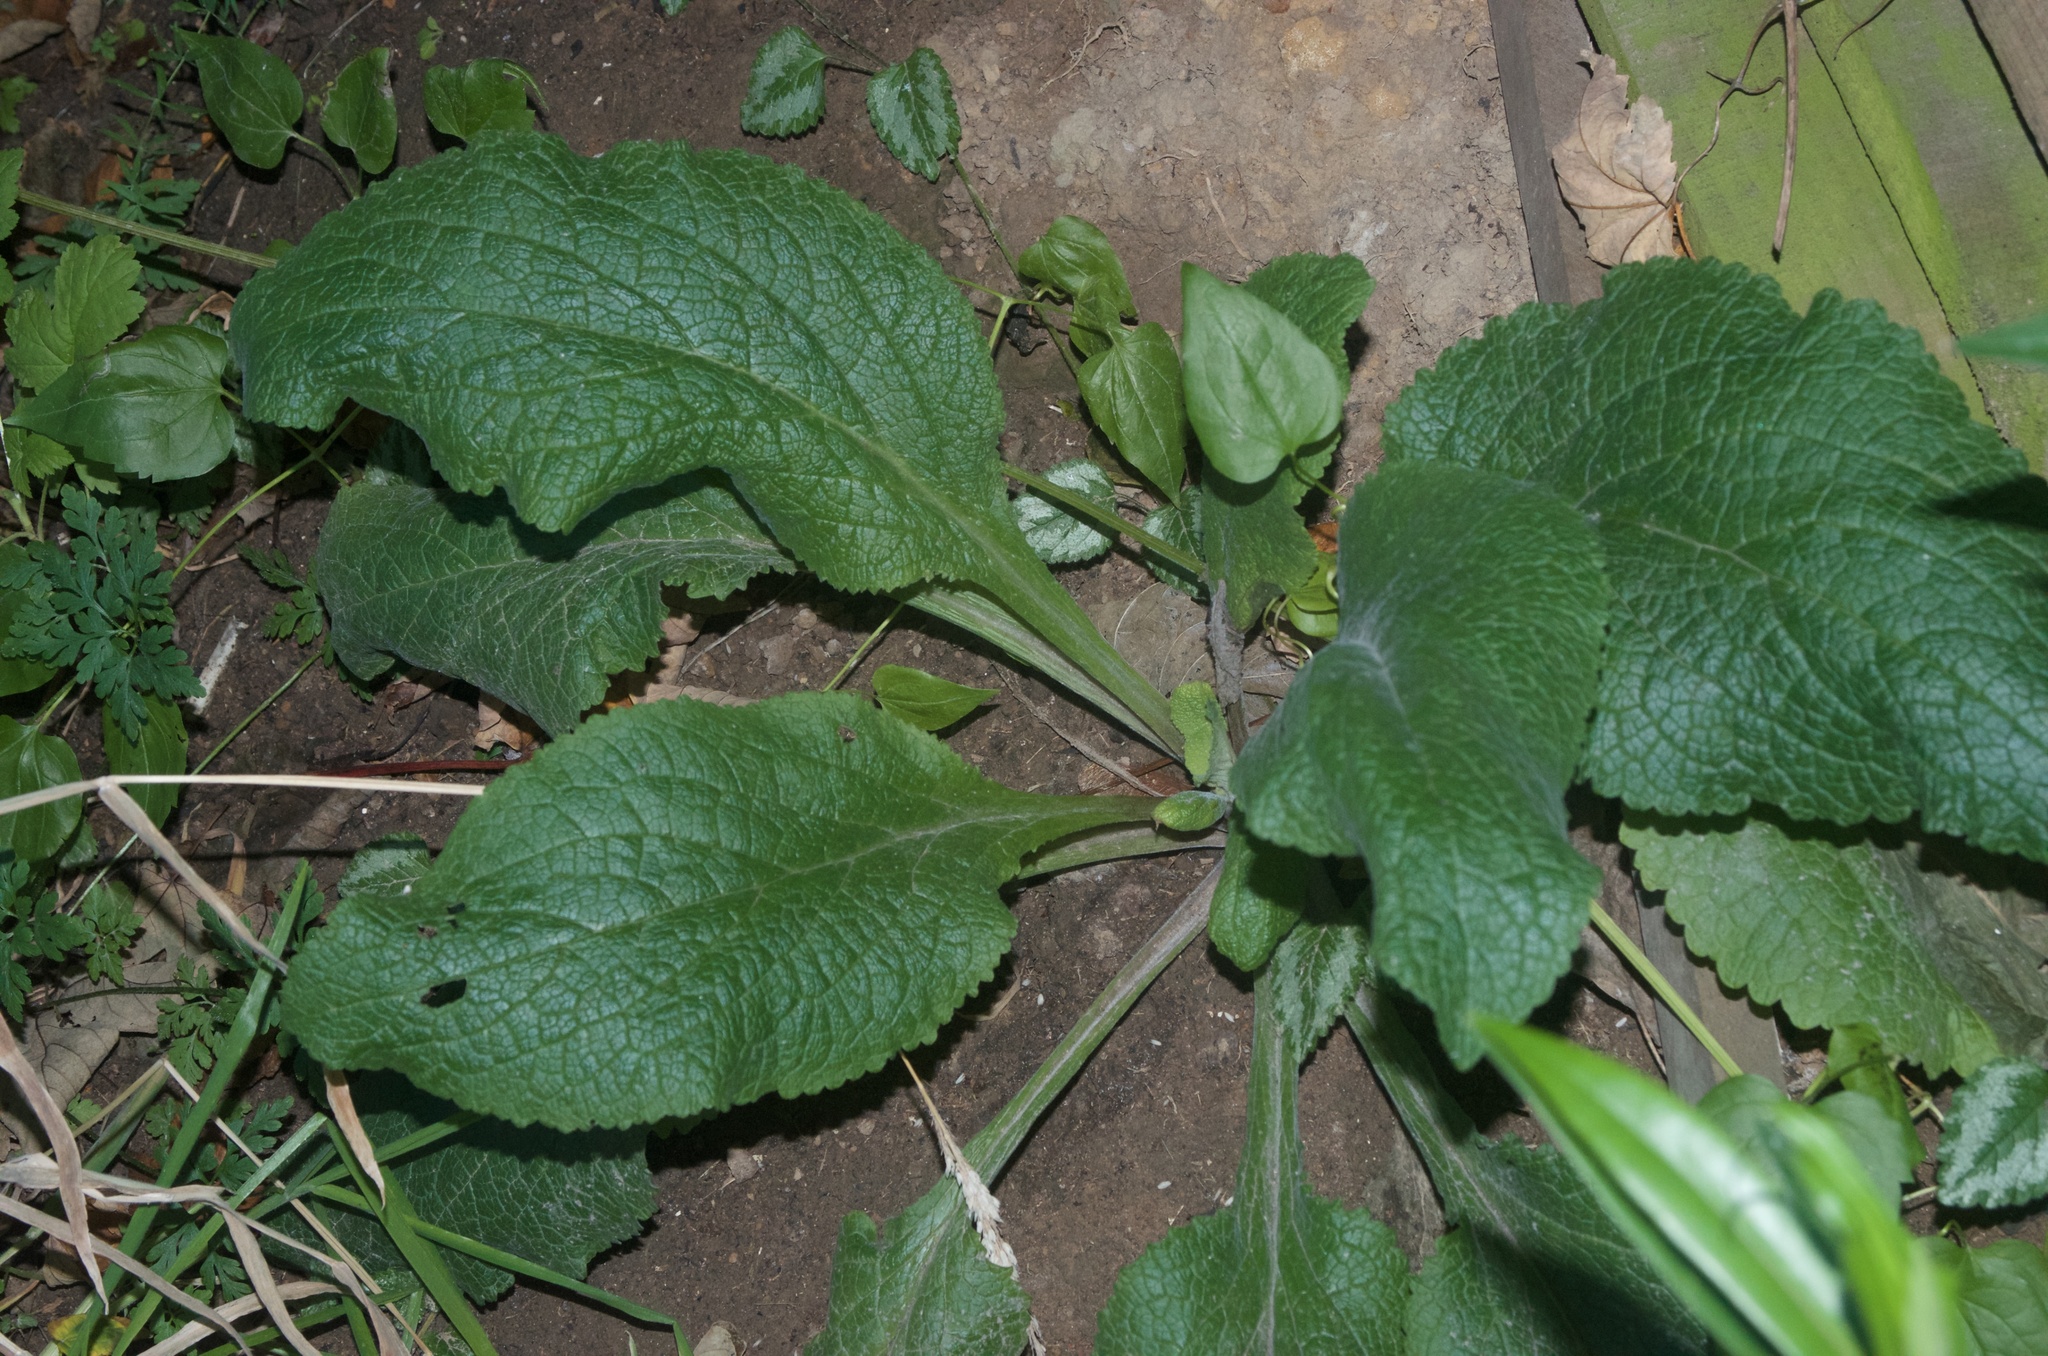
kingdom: Plantae
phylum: Tracheophyta
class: Magnoliopsida
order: Lamiales
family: Plantaginaceae
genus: Digitalis
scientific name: Digitalis purpurea
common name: Foxglove
